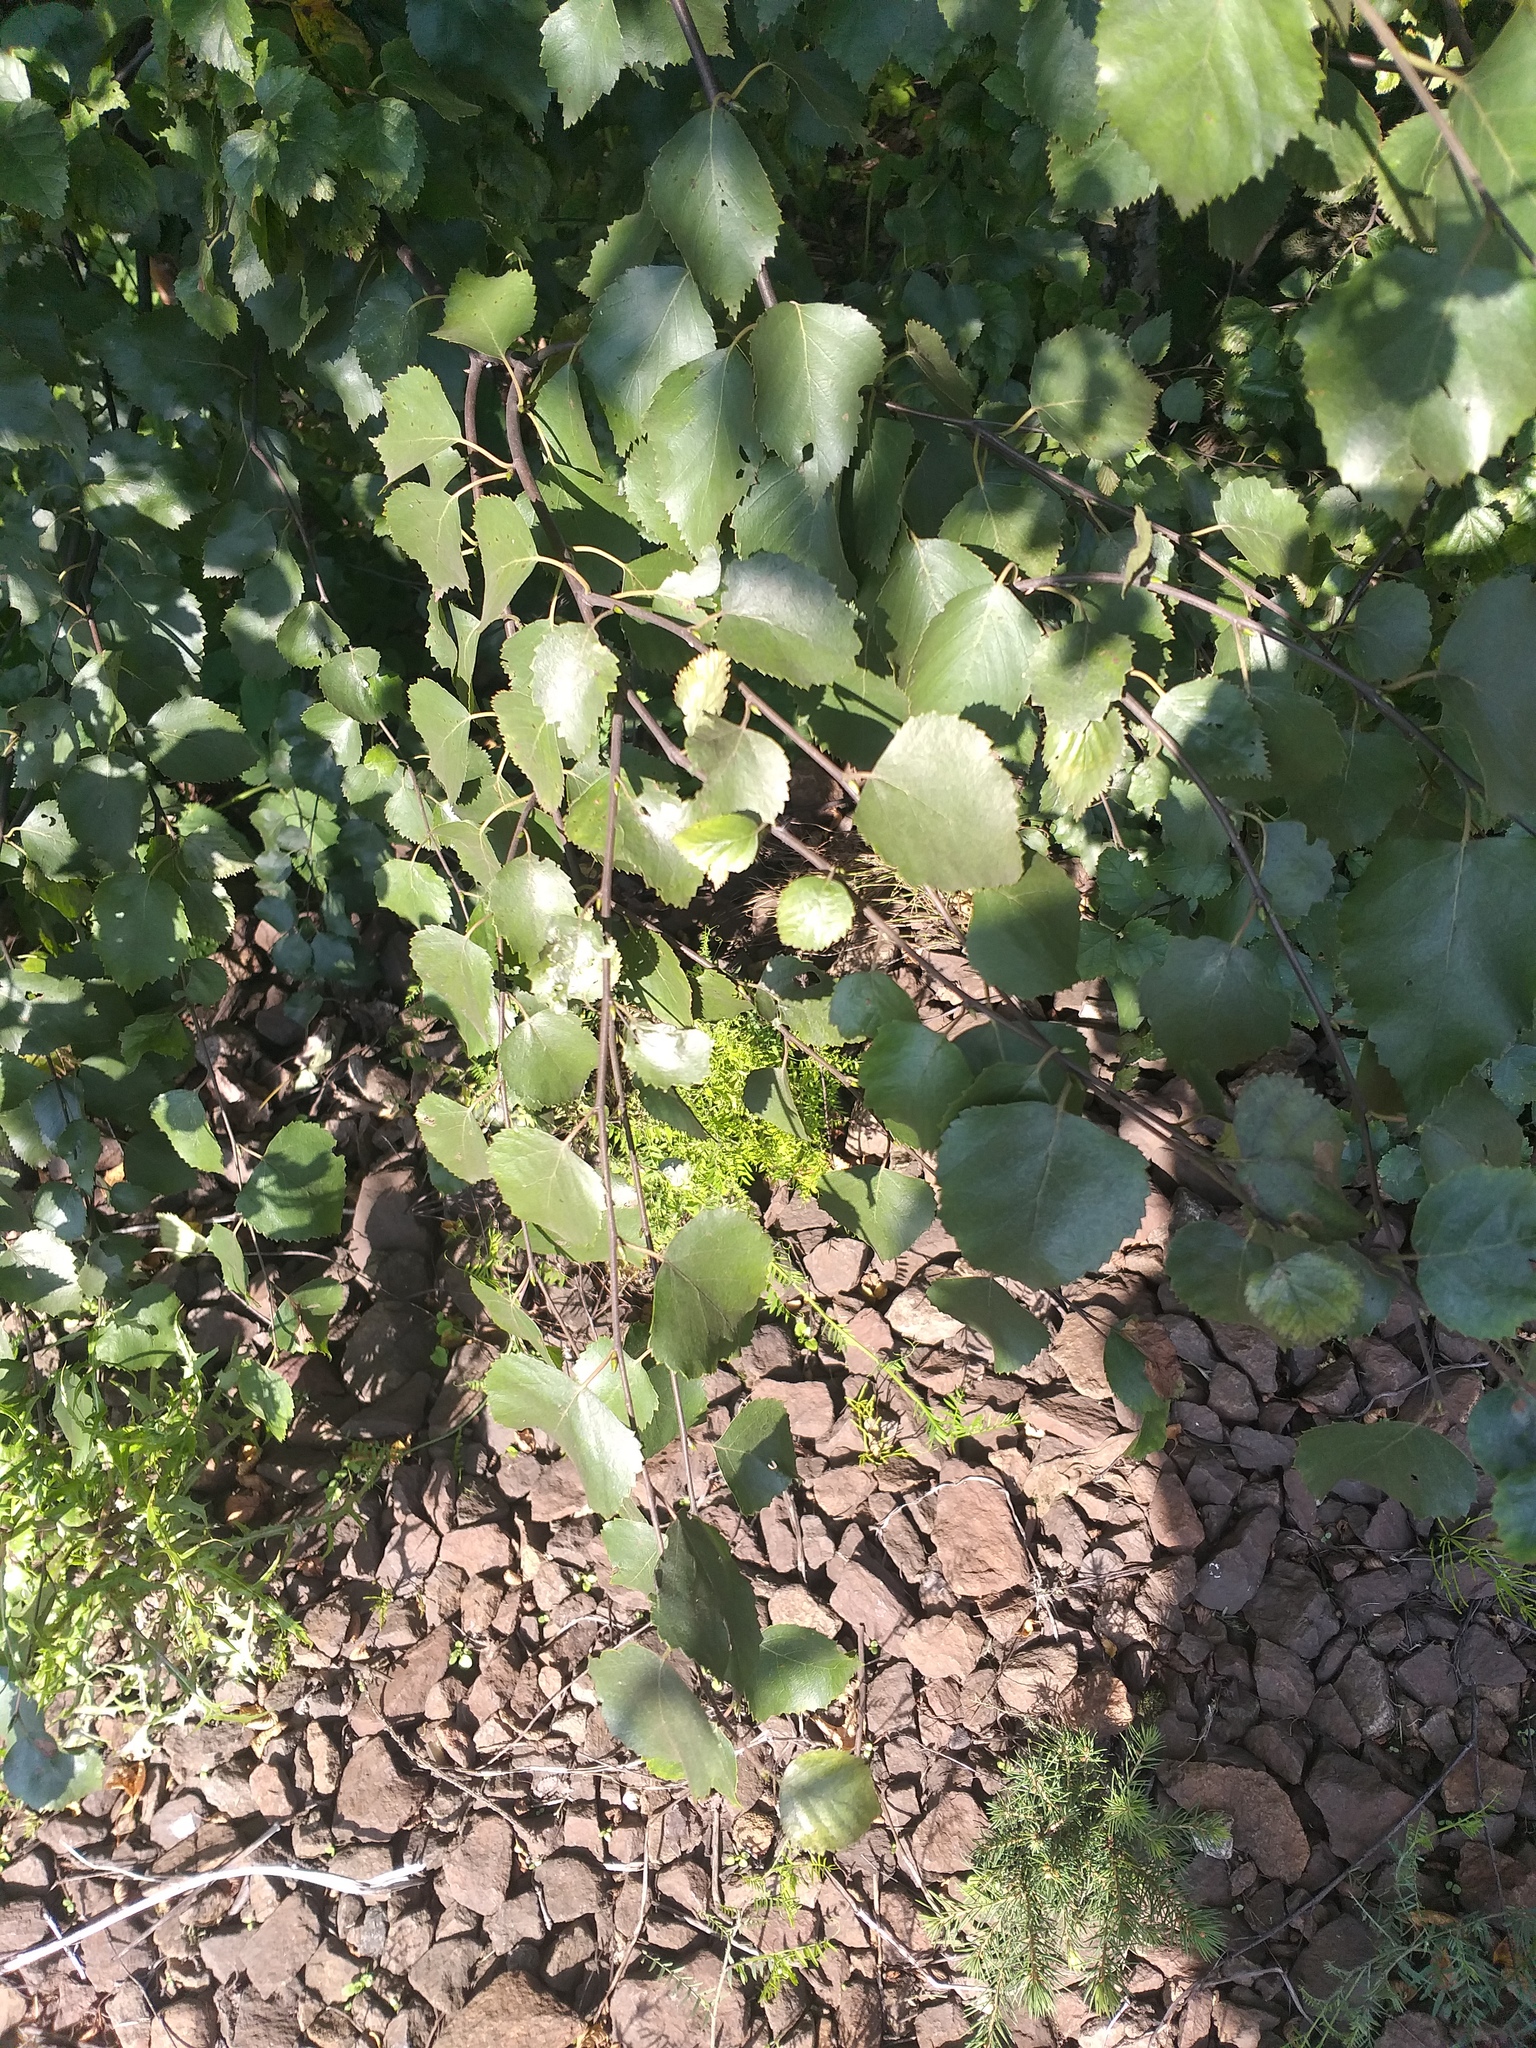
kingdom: Plantae
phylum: Tracheophyta
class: Magnoliopsida
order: Fagales
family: Betulaceae
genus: Betula
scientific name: Betula pendula
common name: Silver birch
